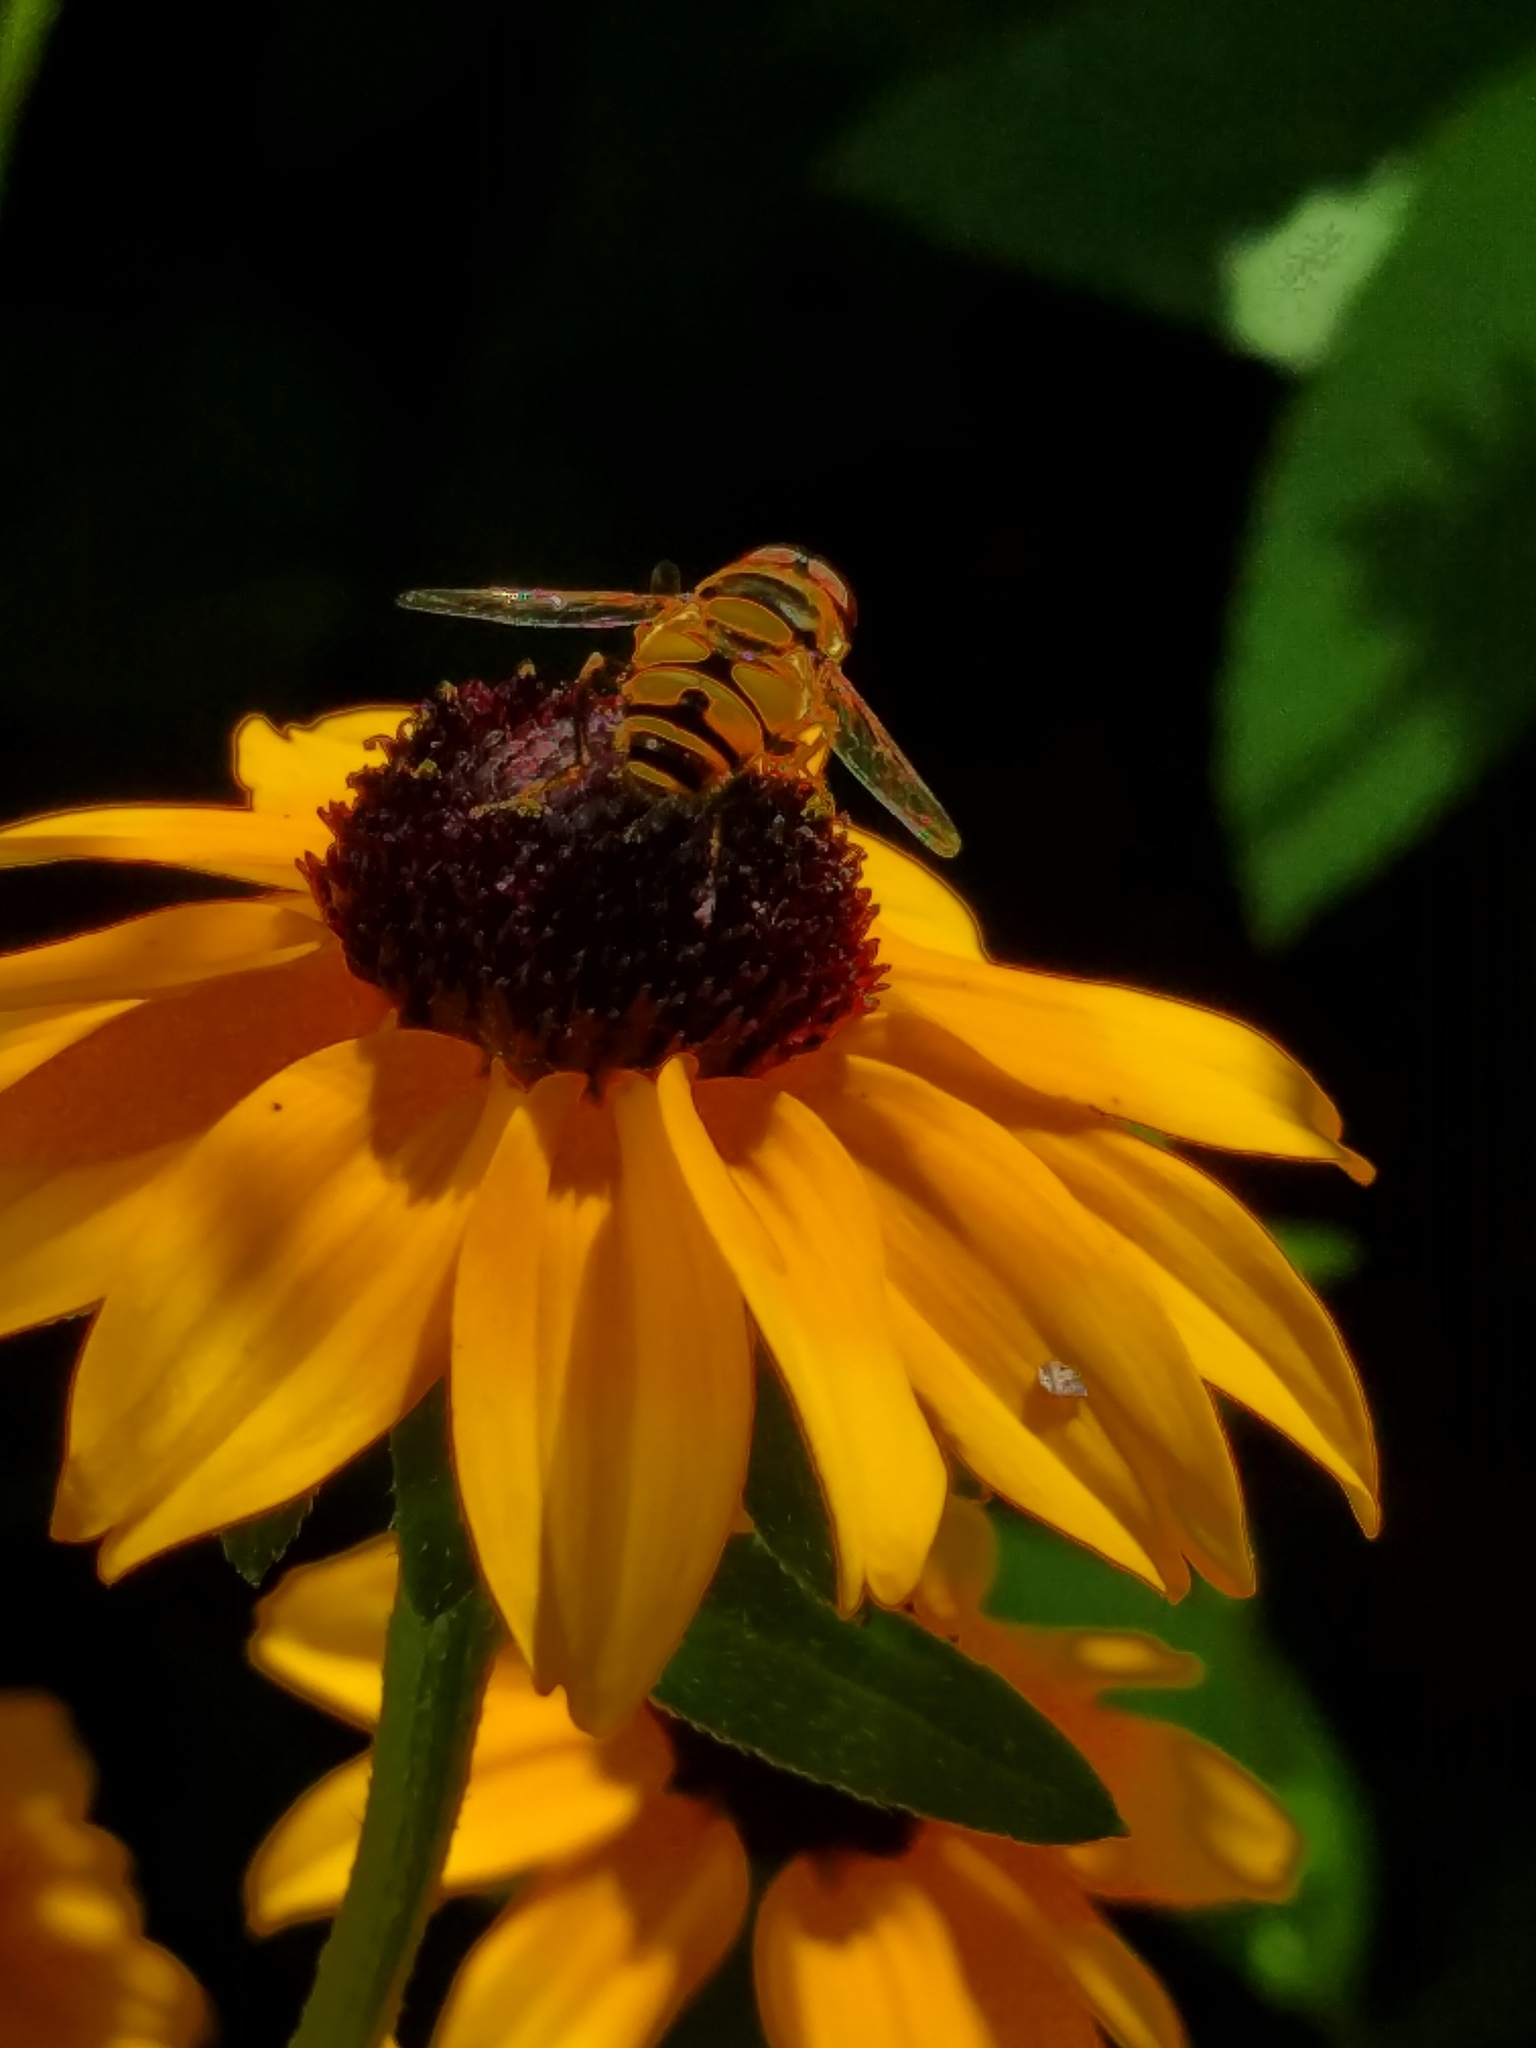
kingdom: Animalia
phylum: Arthropoda
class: Insecta
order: Diptera
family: Syrphidae
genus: Eristalis
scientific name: Eristalis transversa
